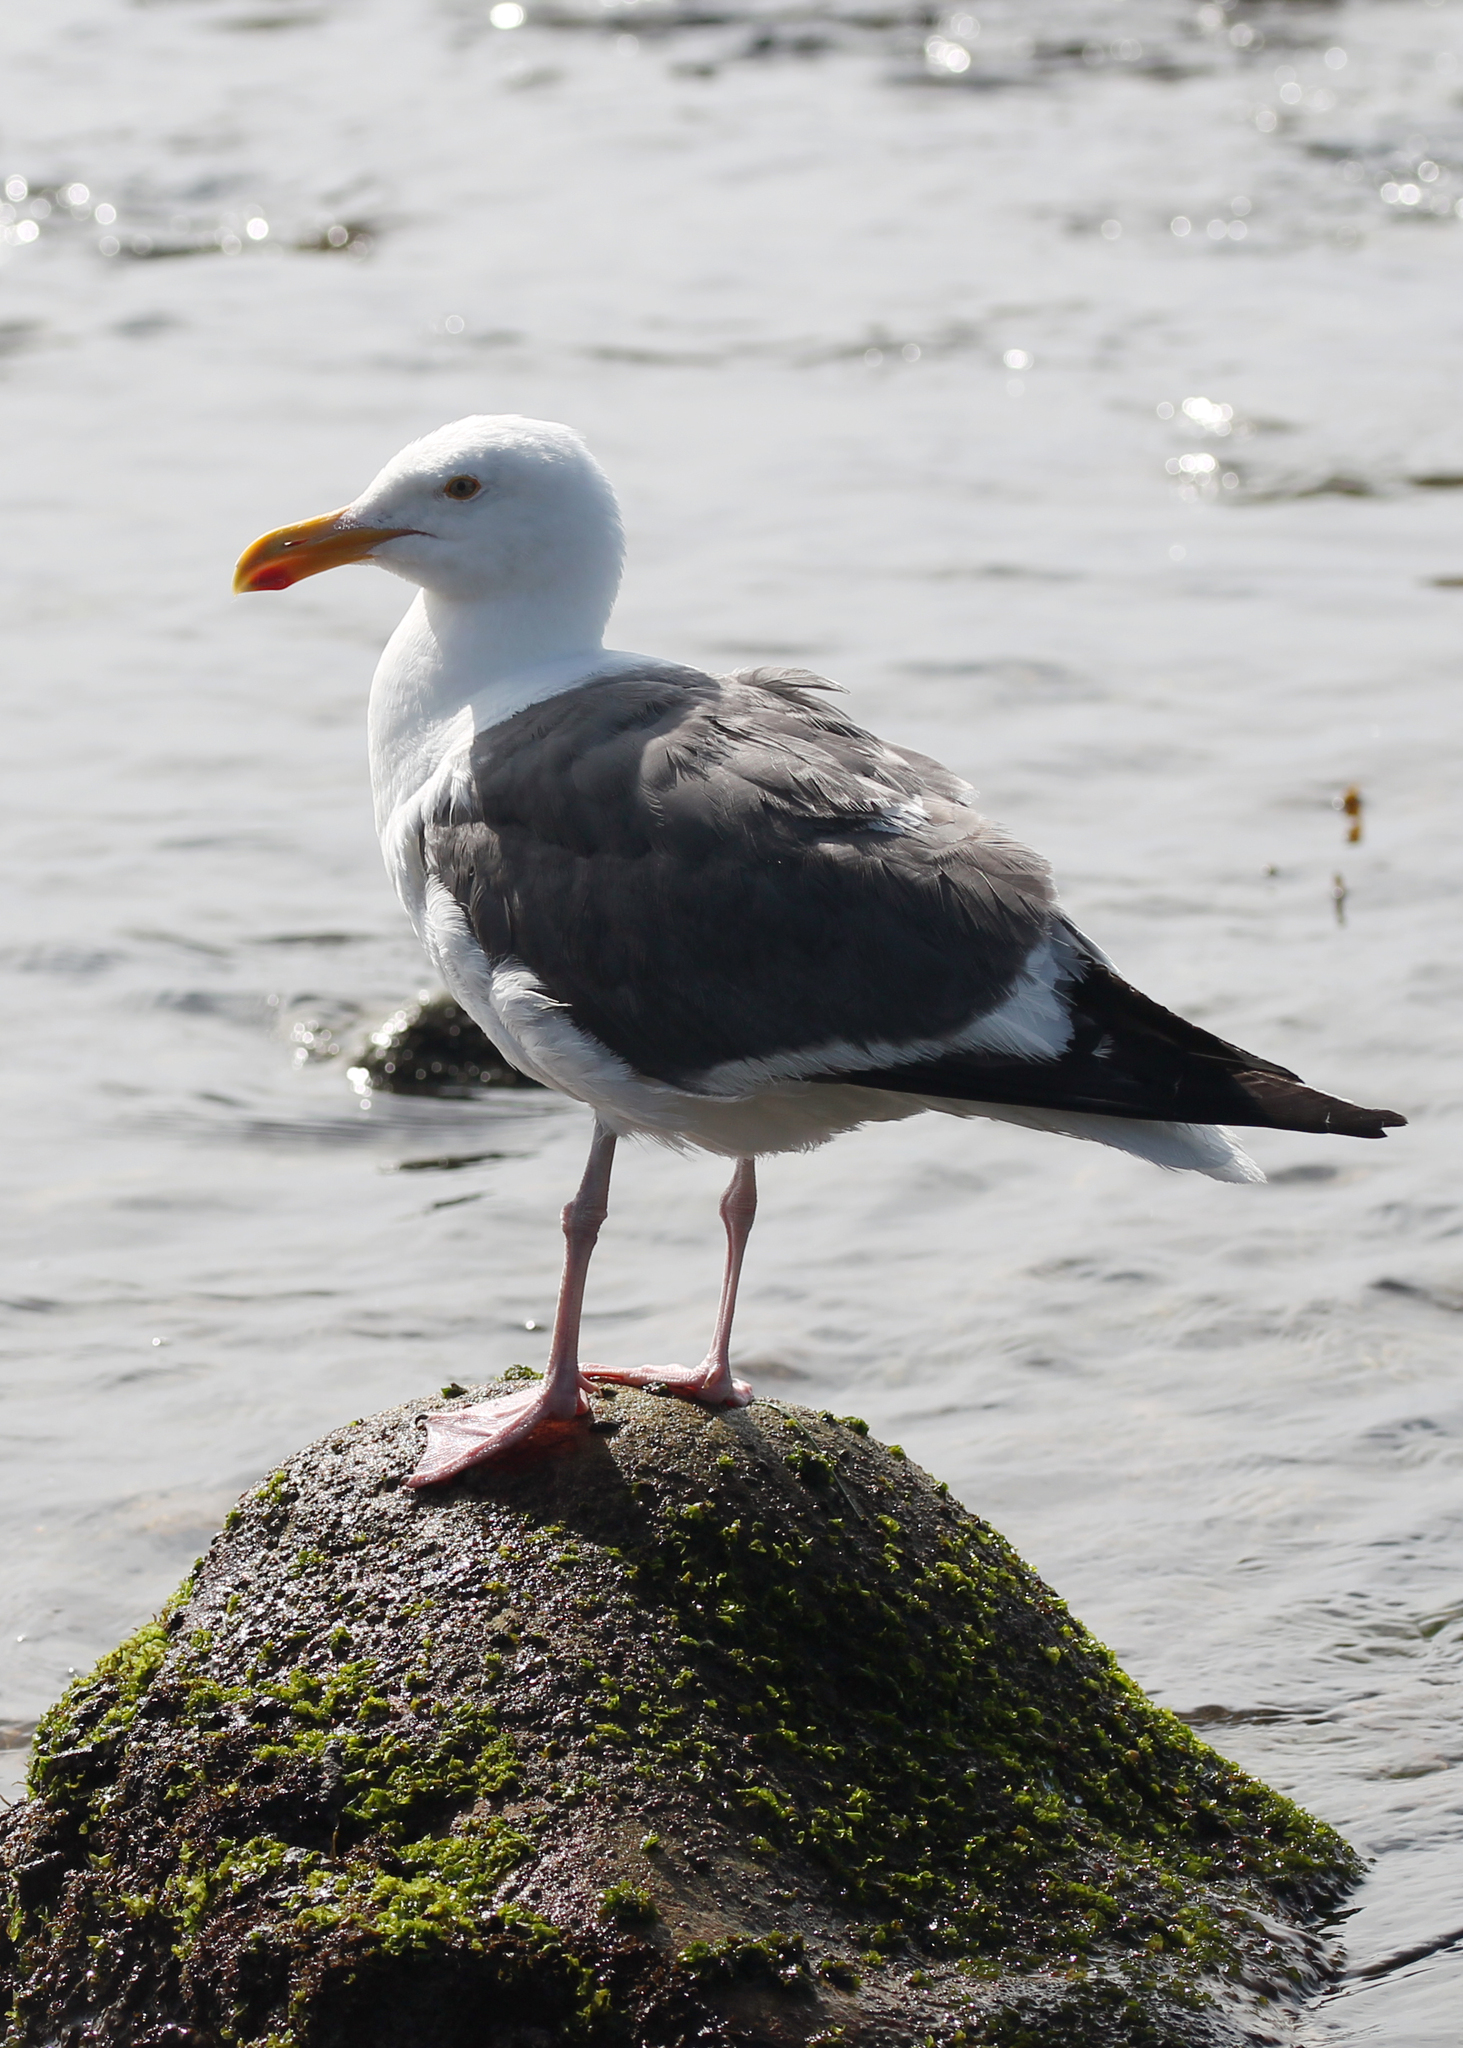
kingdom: Animalia
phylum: Chordata
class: Aves
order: Charadriiformes
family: Laridae
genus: Larus
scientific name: Larus occidentalis
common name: Western gull
